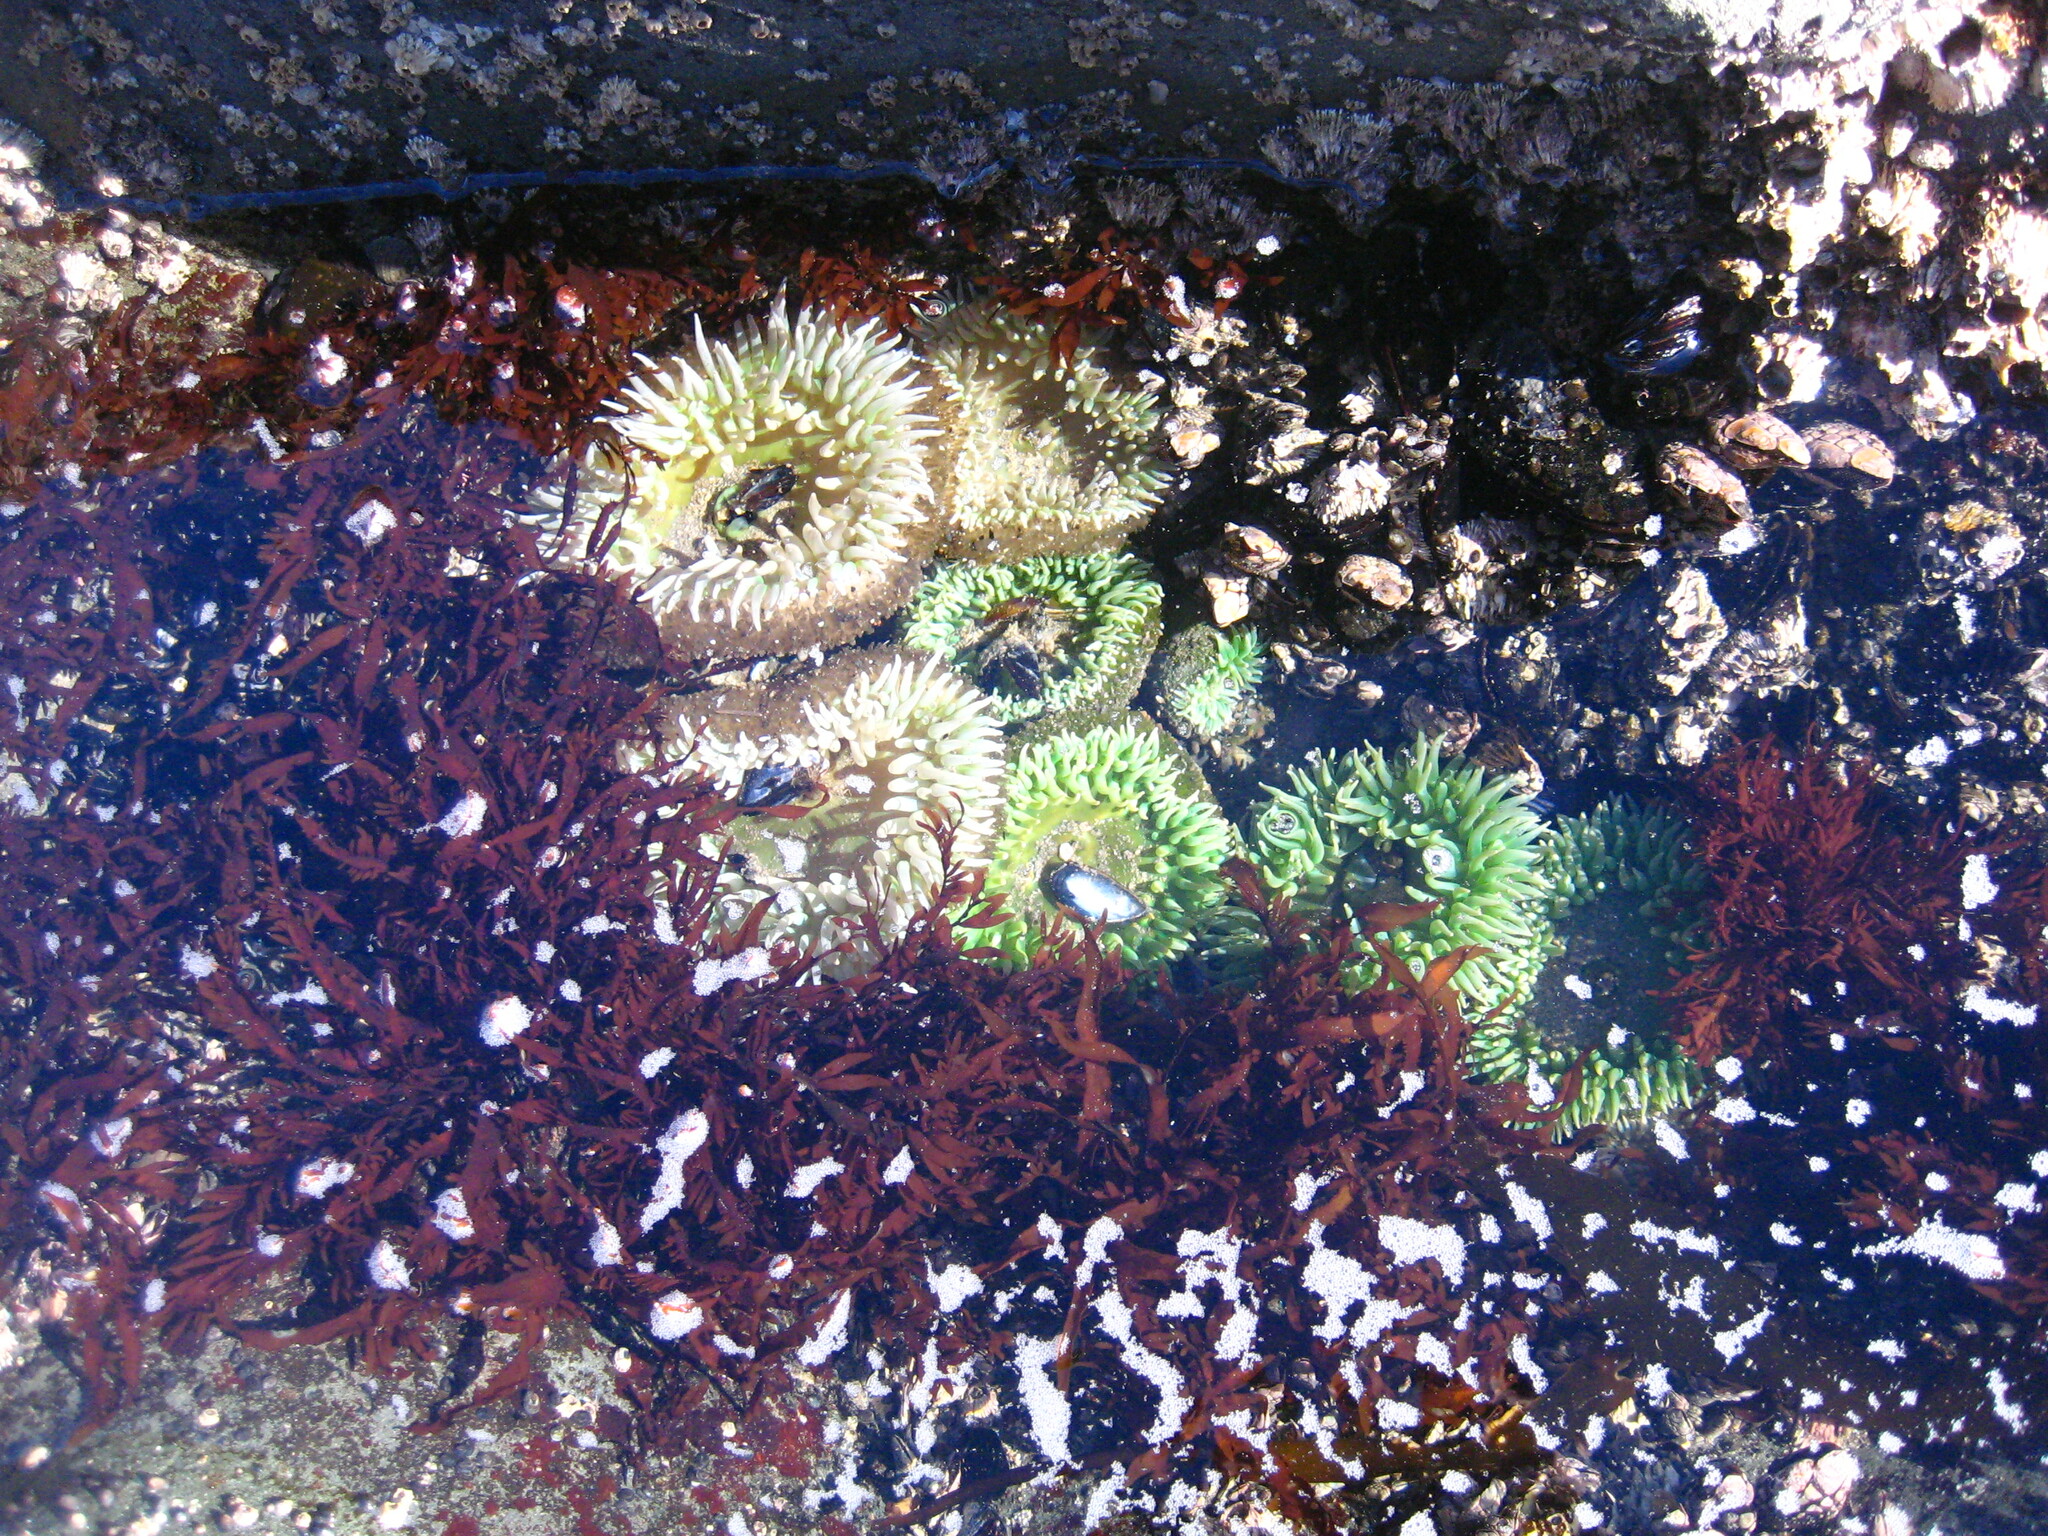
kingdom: Plantae
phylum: Rhodophyta
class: Florideophyceae
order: Halymeniales
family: Halymeniaceae
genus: Grateloupia
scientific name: Grateloupia Prionitis lanceolata
